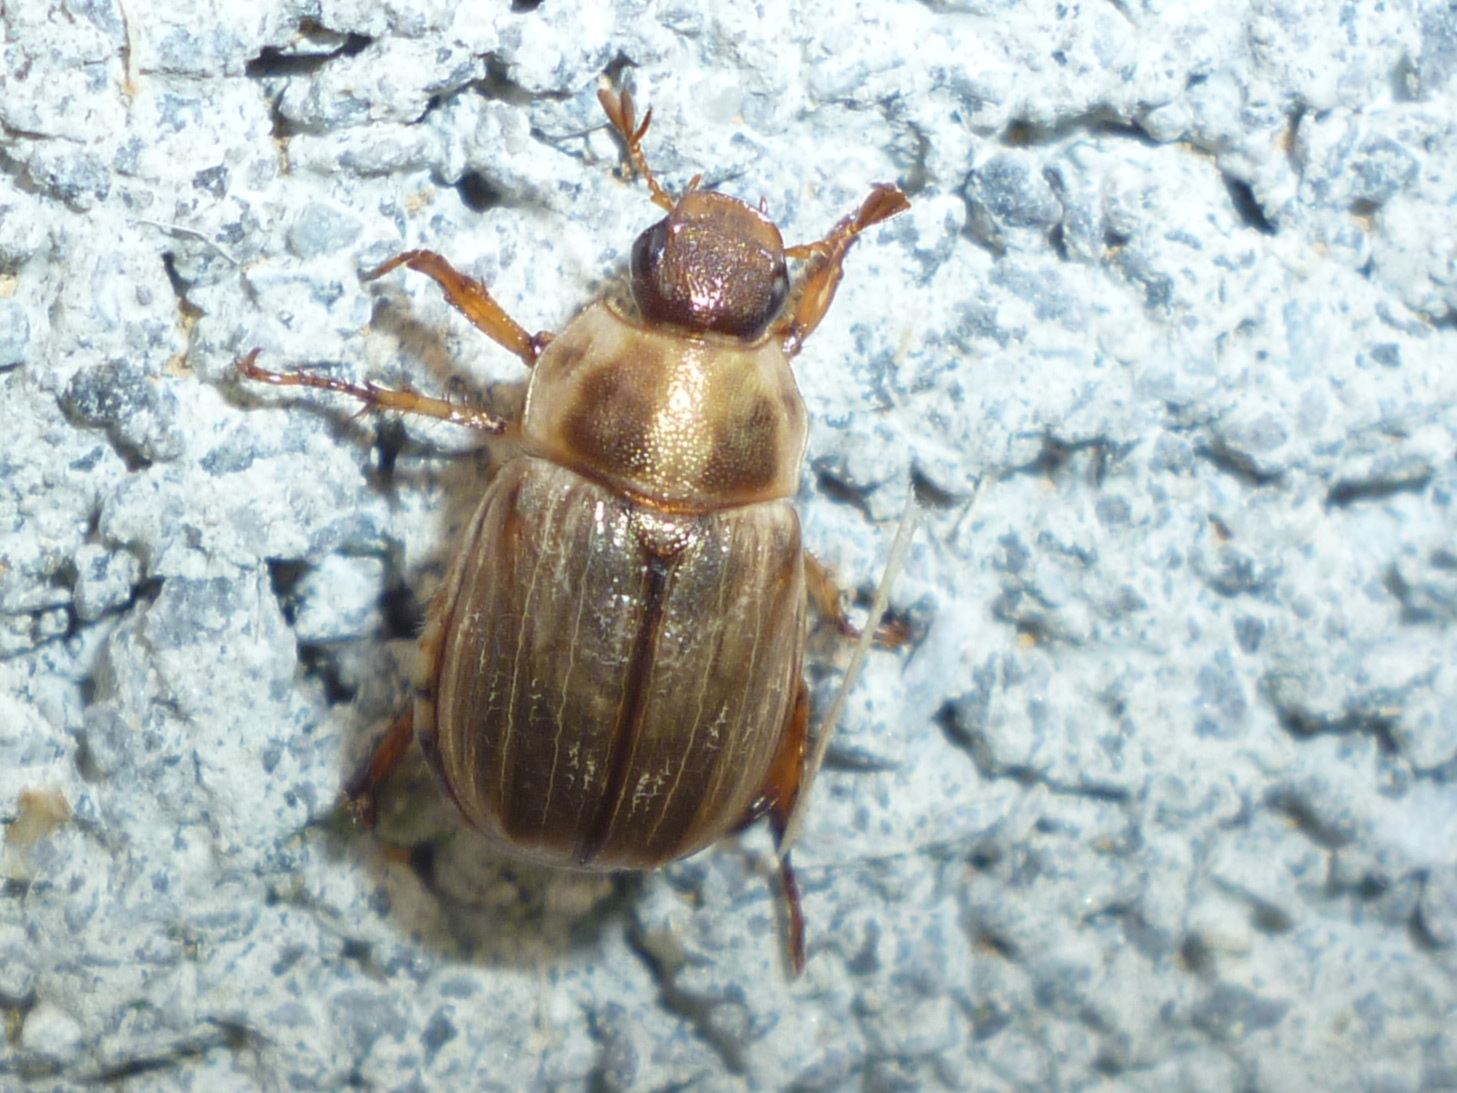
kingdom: Animalia
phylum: Arthropoda
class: Insecta
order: Coleoptera
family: Scarabaeidae
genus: Exomala
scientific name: Exomala orientalis
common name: Oriental beetle
